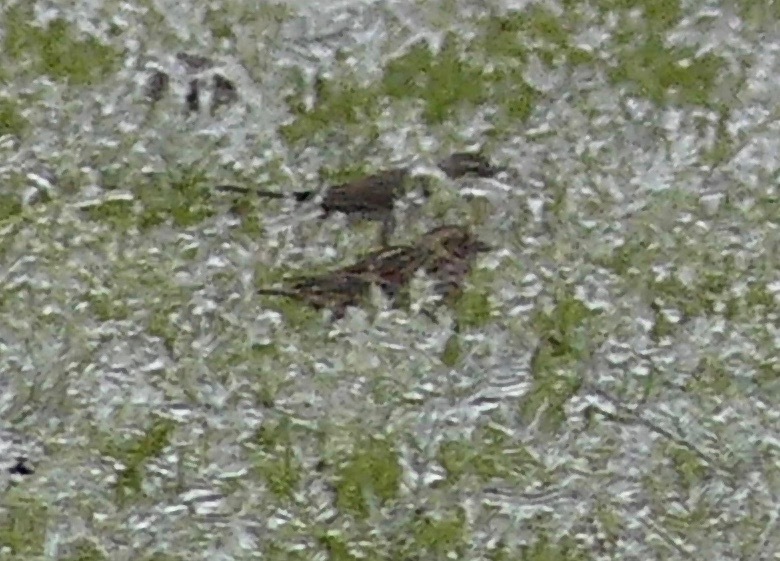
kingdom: Animalia
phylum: Chordata
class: Aves
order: Passeriformes
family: Calcariidae
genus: Calcarius
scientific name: Calcarius lapponicus
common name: Lapland longspur
